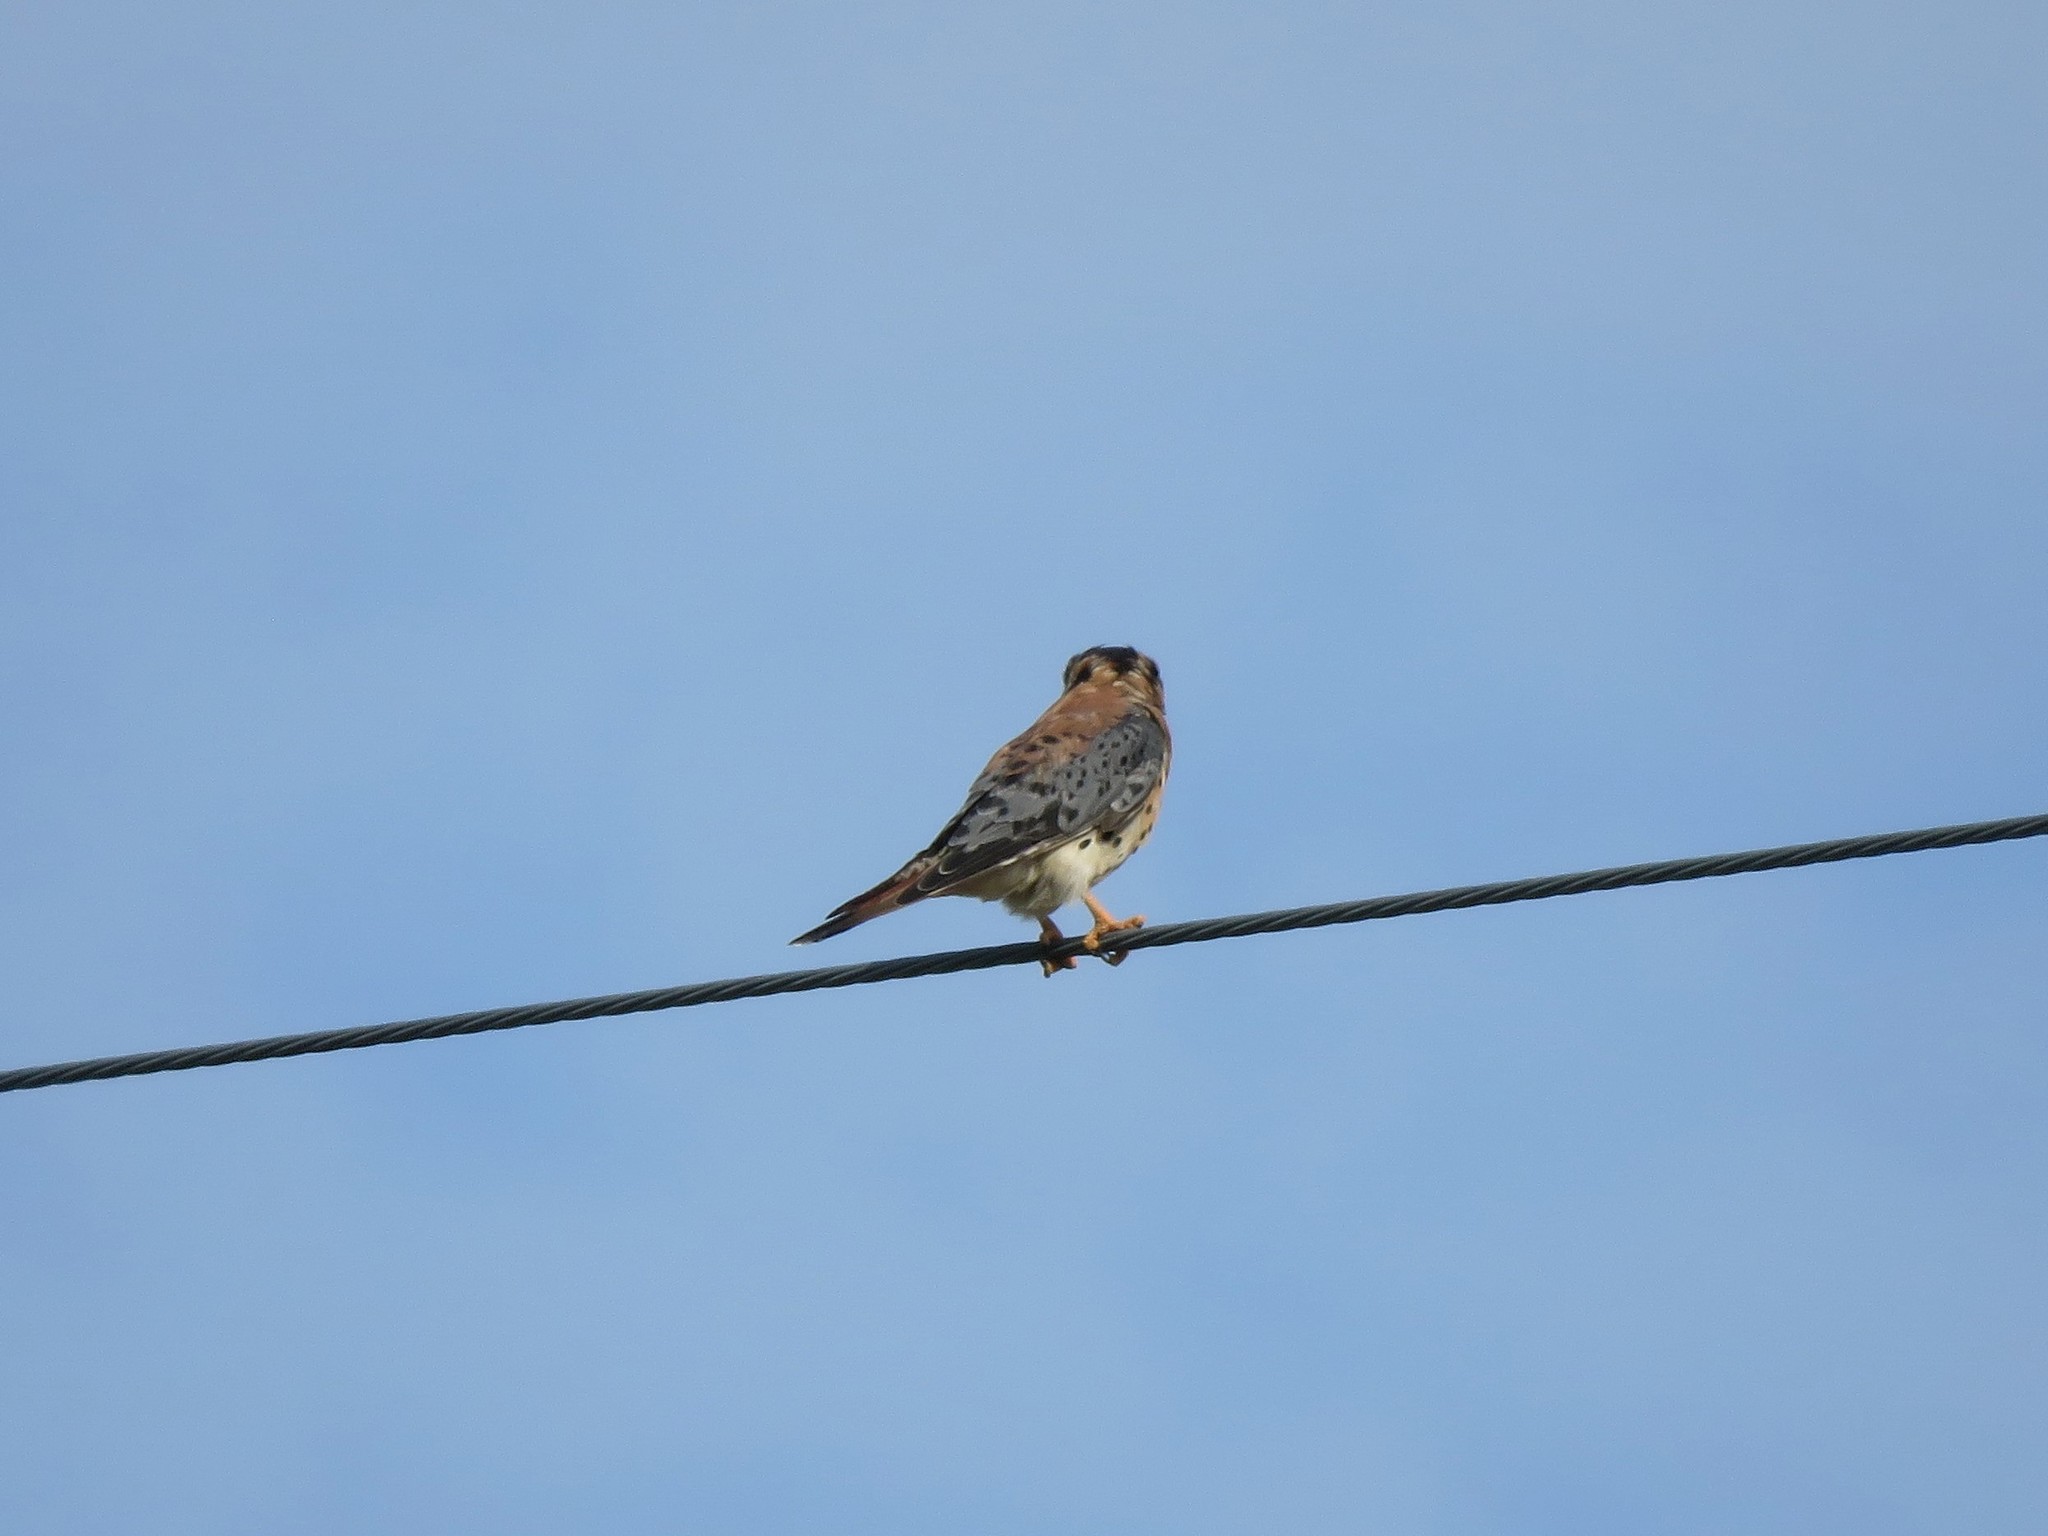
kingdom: Animalia
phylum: Chordata
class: Aves
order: Falconiformes
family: Falconidae
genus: Falco
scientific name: Falco sparverius
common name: American kestrel
